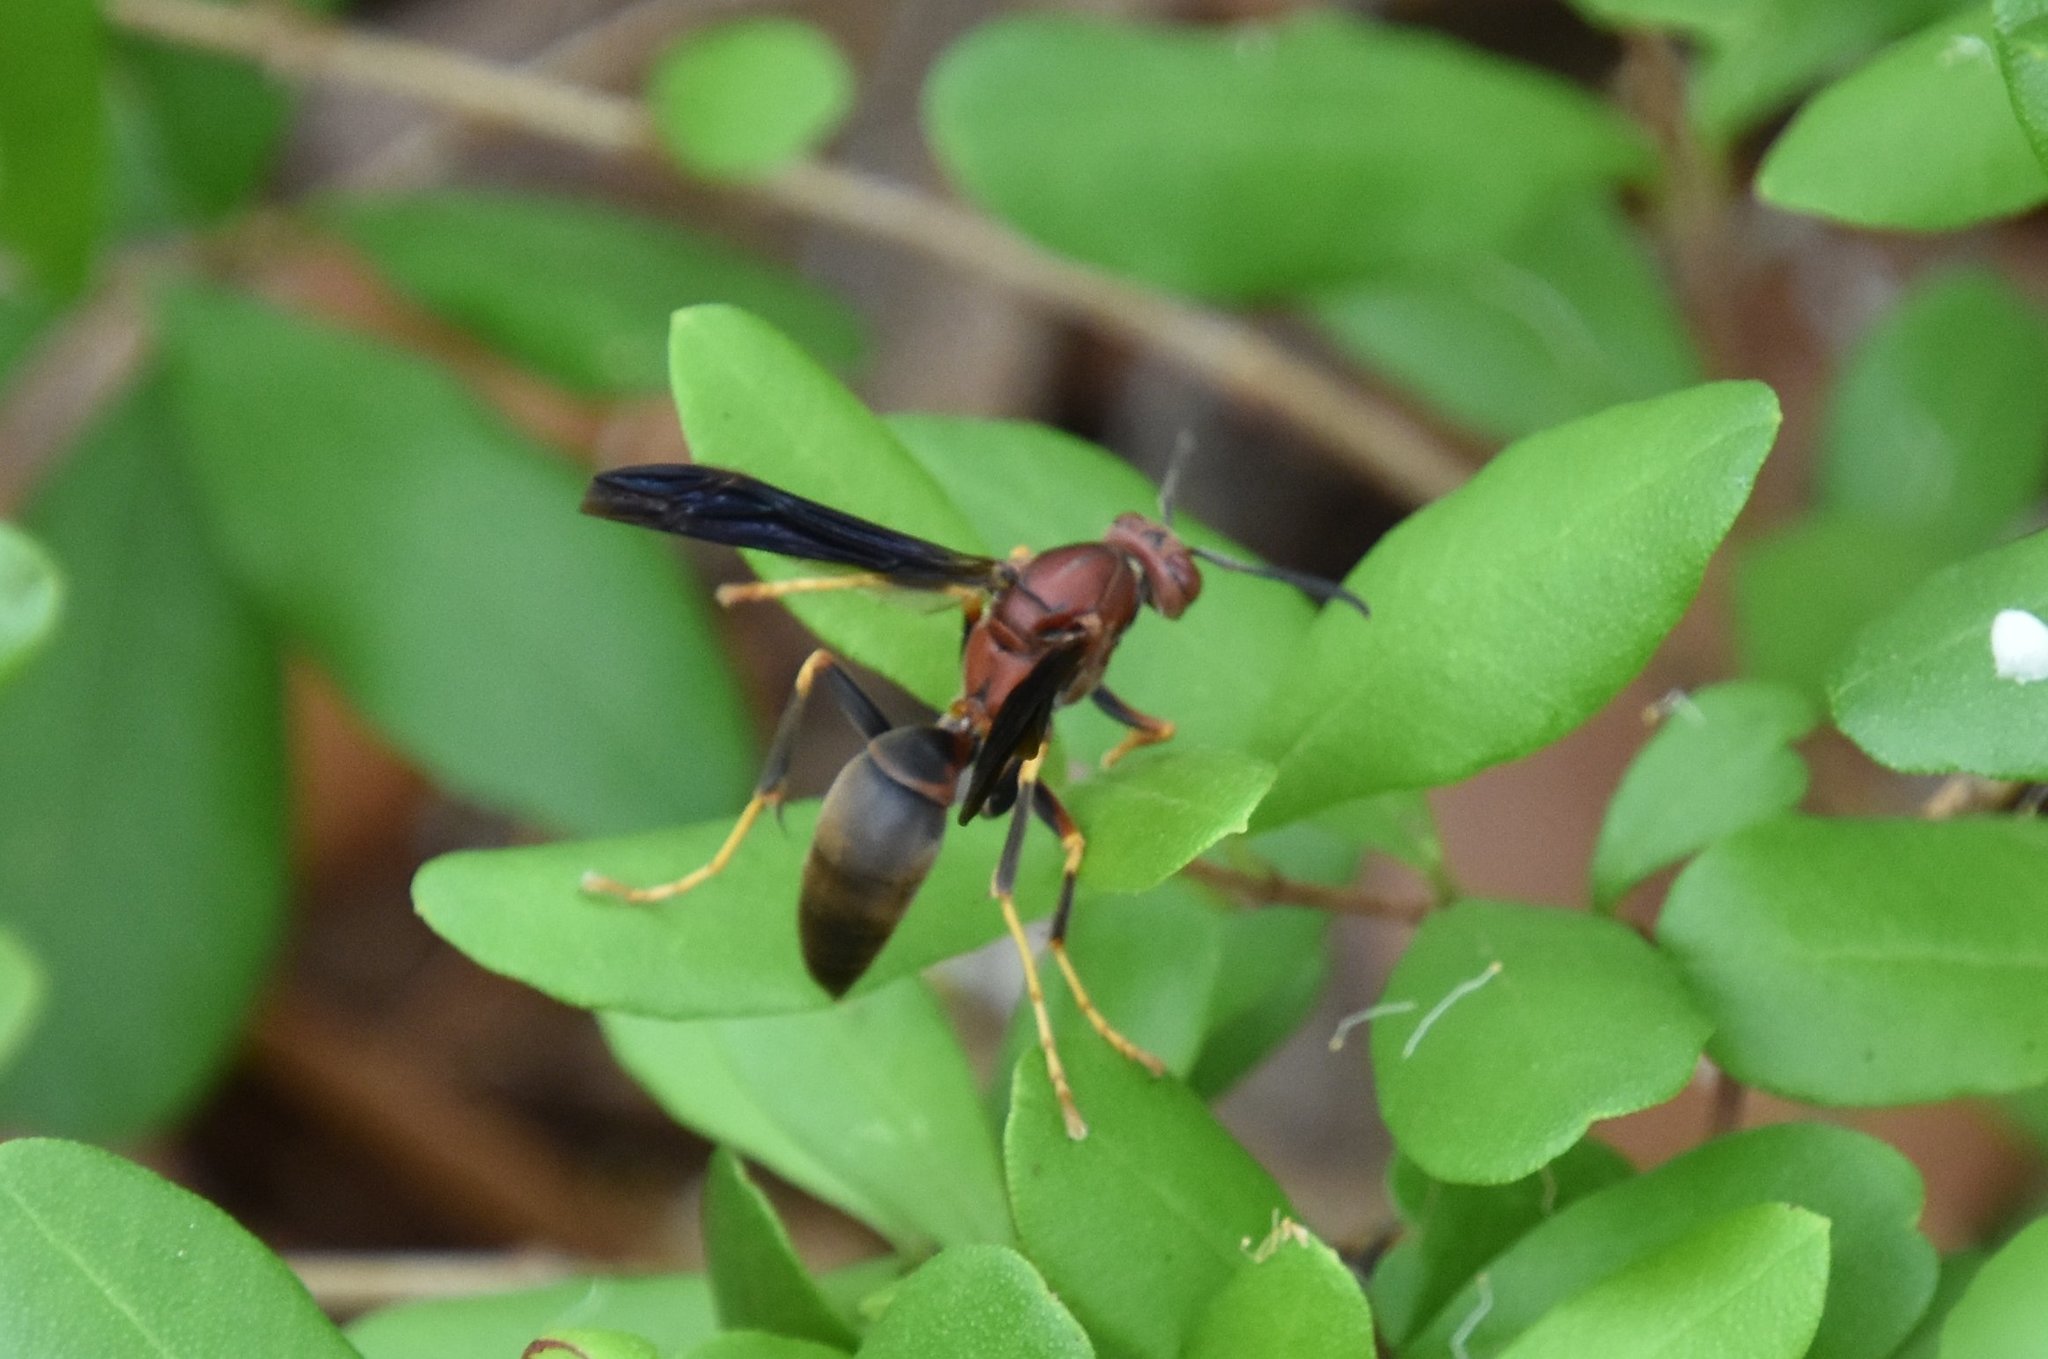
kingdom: Animalia
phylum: Arthropoda
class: Insecta
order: Hymenoptera
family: Eumenidae
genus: Polistes
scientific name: Polistes metricus
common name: Metric paper wasp
